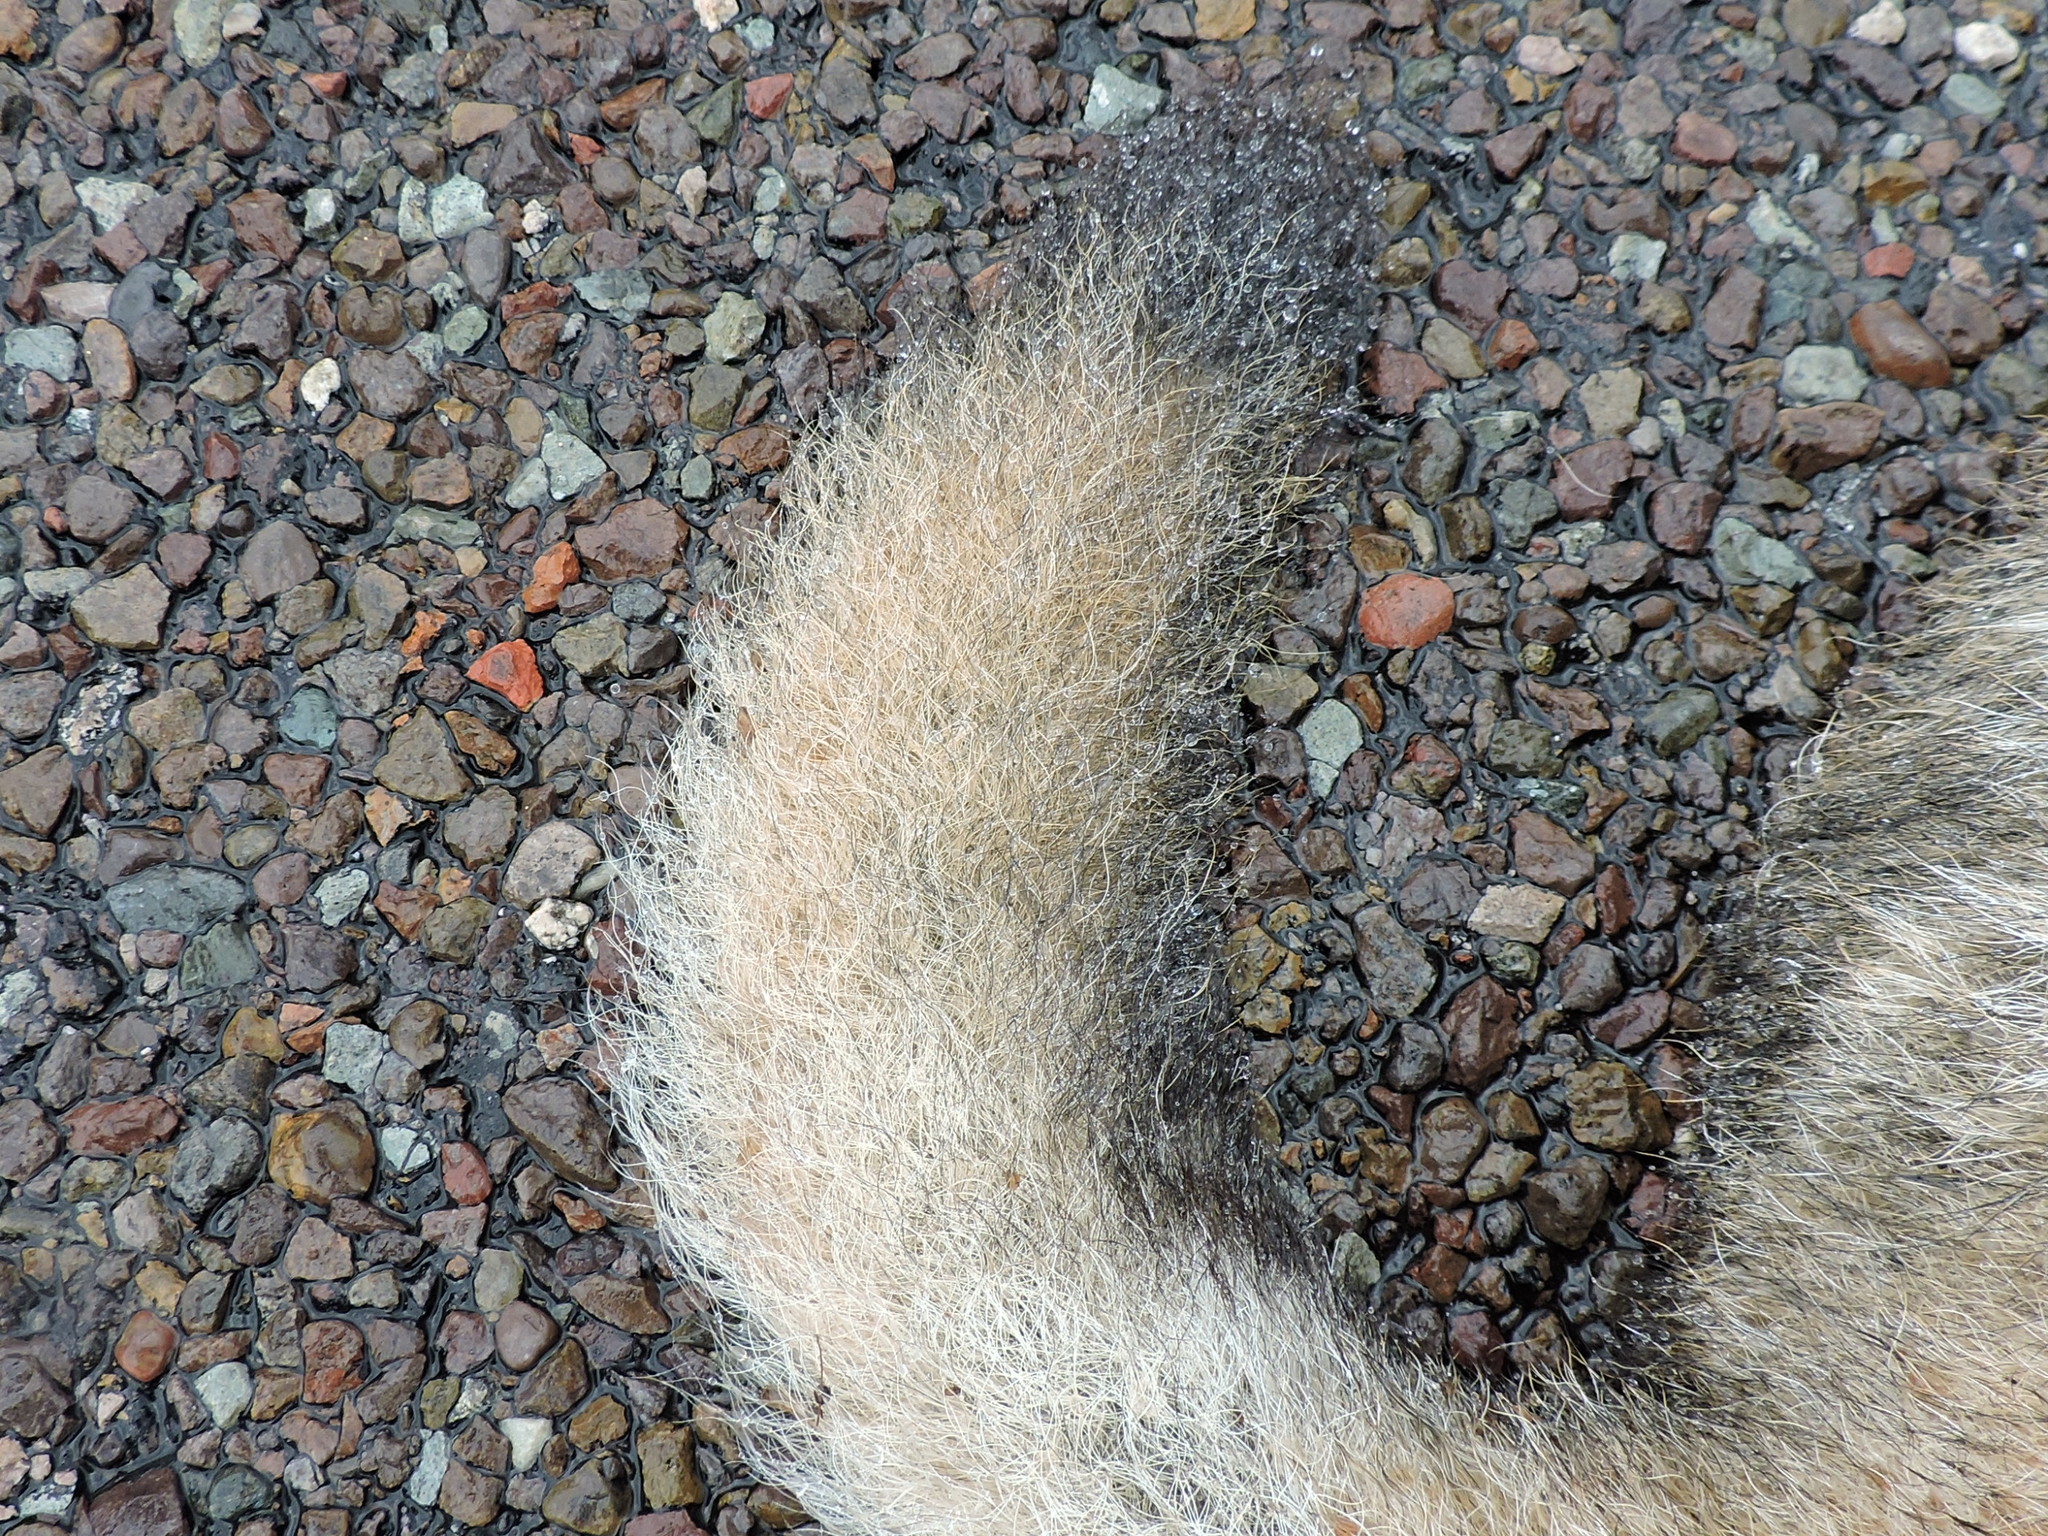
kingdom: Animalia
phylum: Chordata
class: Mammalia
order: Carnivora
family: Canidae
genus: Canis
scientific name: Canis latrans
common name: Coyote
